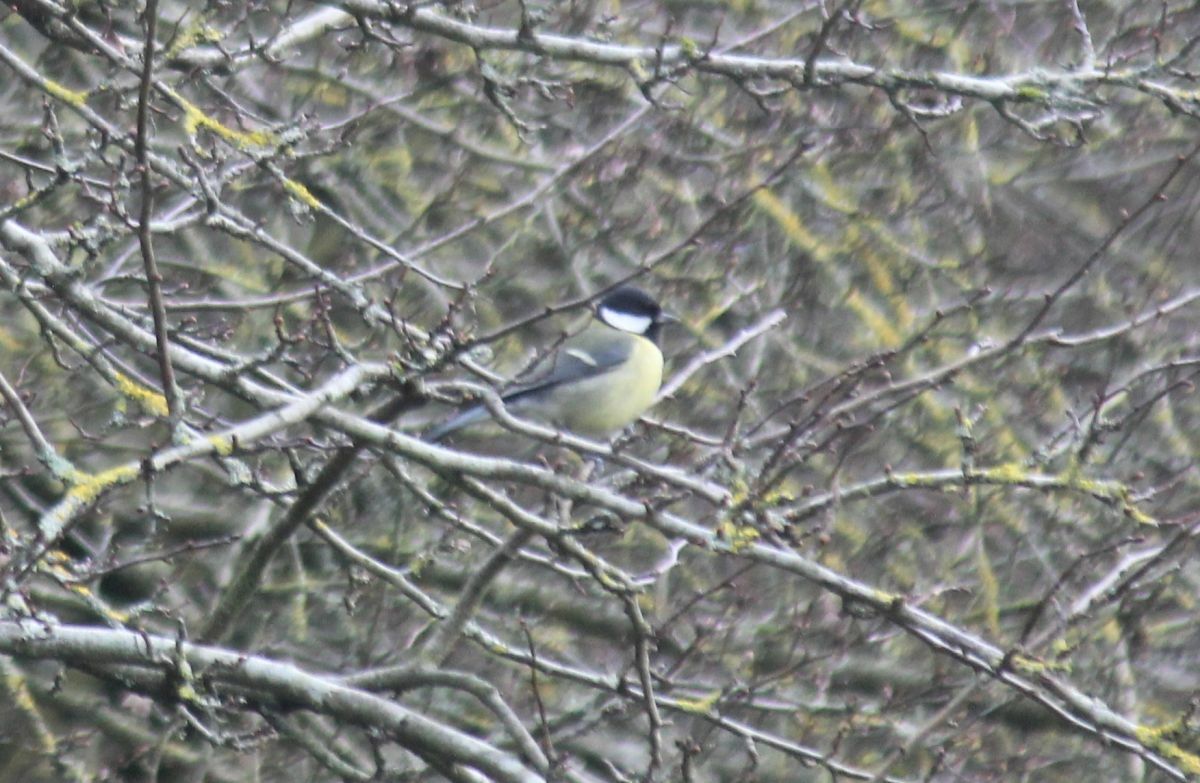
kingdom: Animalia
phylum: Chordata
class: Aves
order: Passeriformes
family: Paridae
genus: Parus
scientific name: Parus major
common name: Great tit
